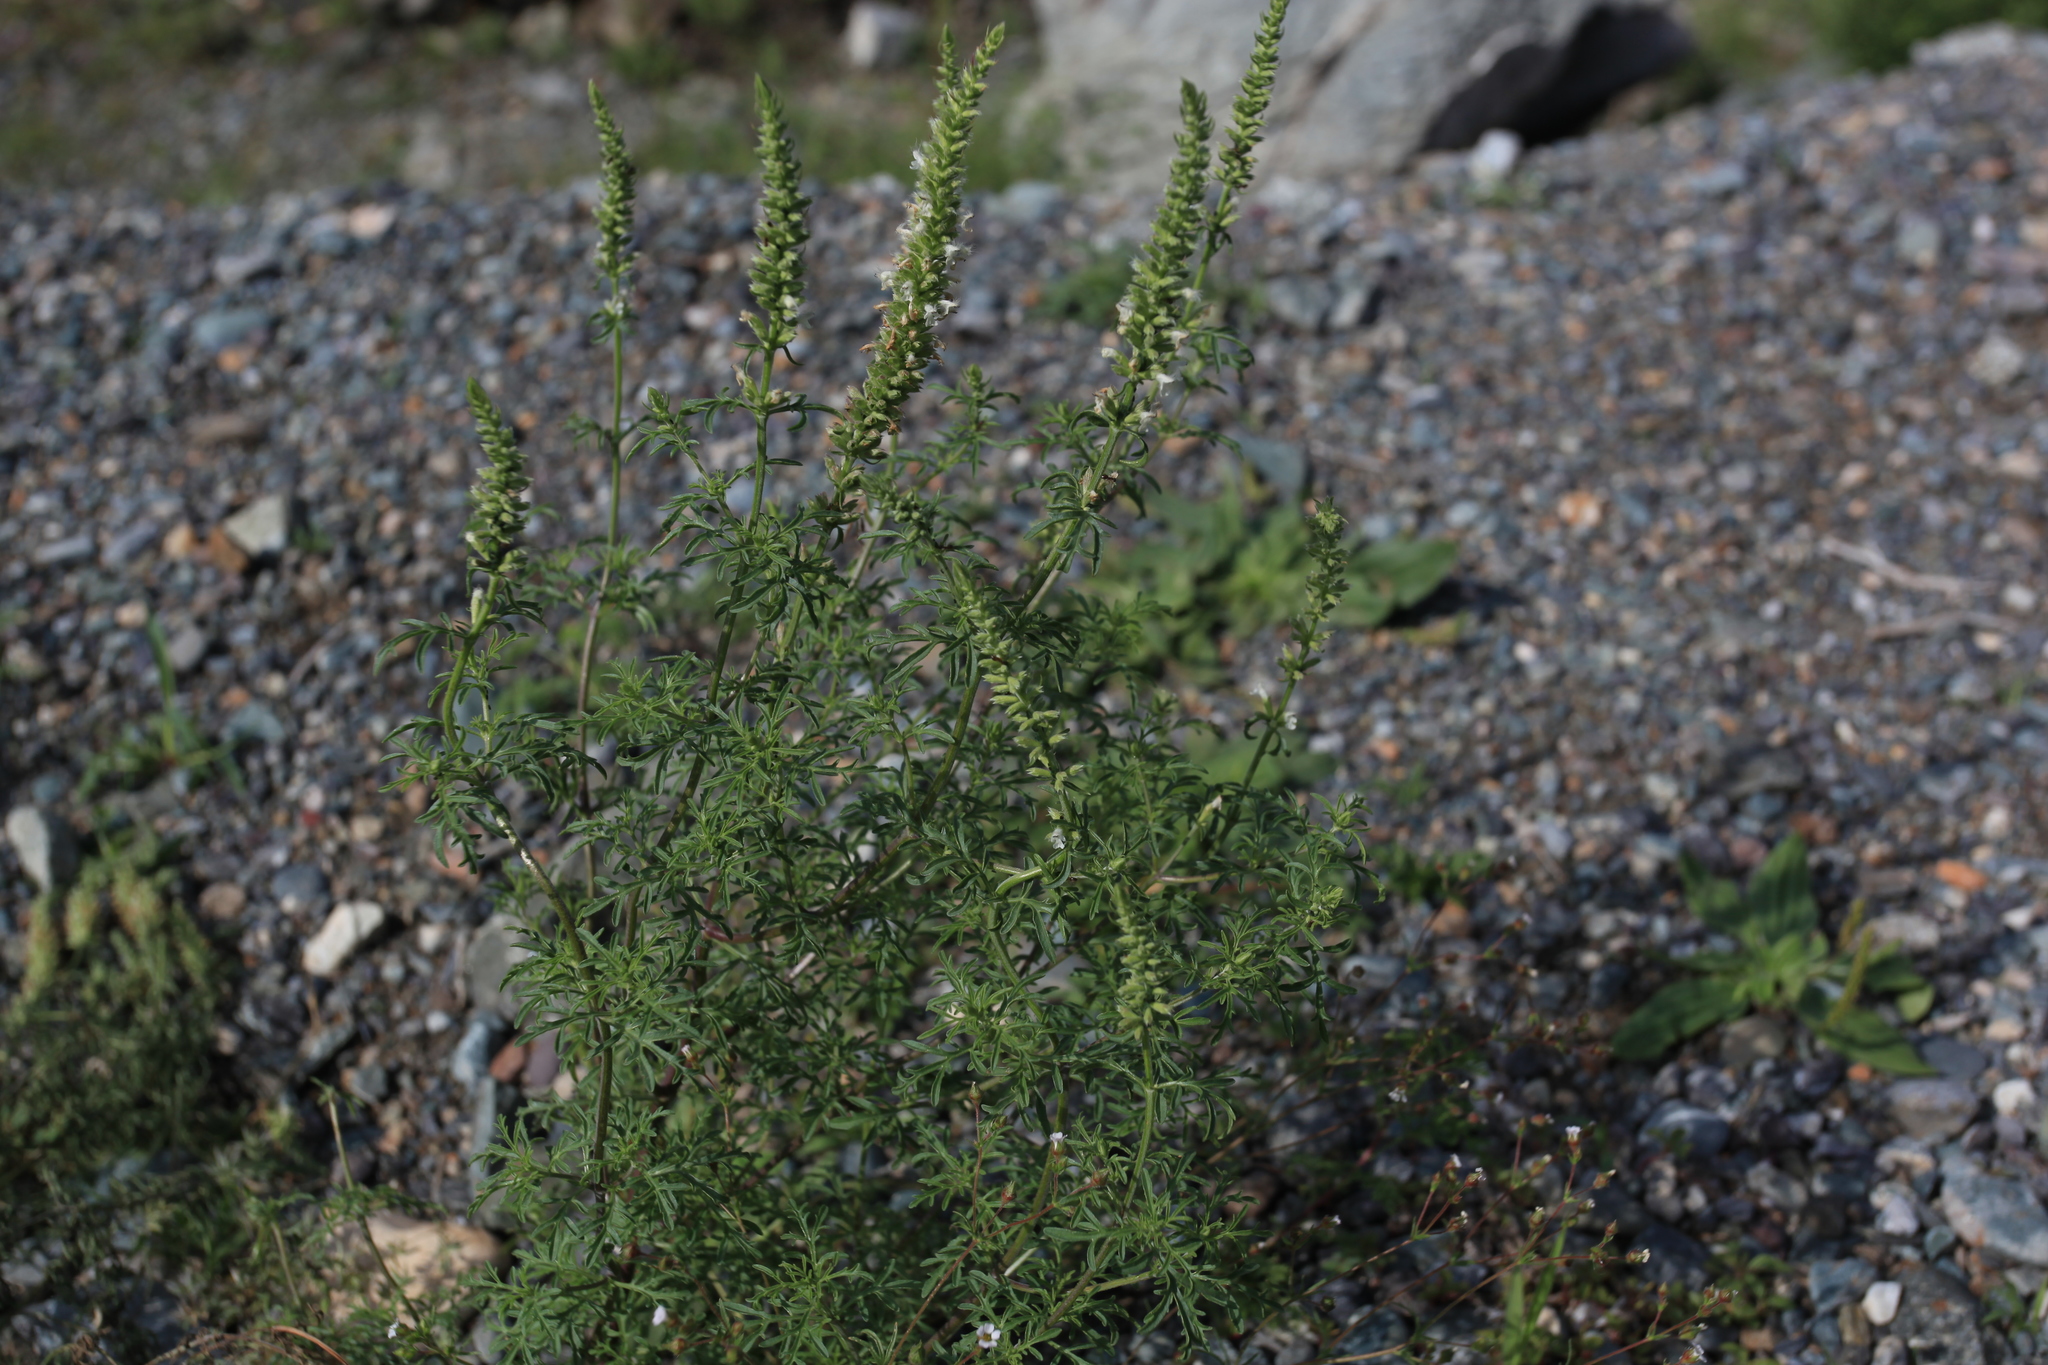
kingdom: Plantae
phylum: Tracheophyta
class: Magnoliopsida
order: Lamiales
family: Lamiaceae
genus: Nepeta
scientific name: Nepeta annua
